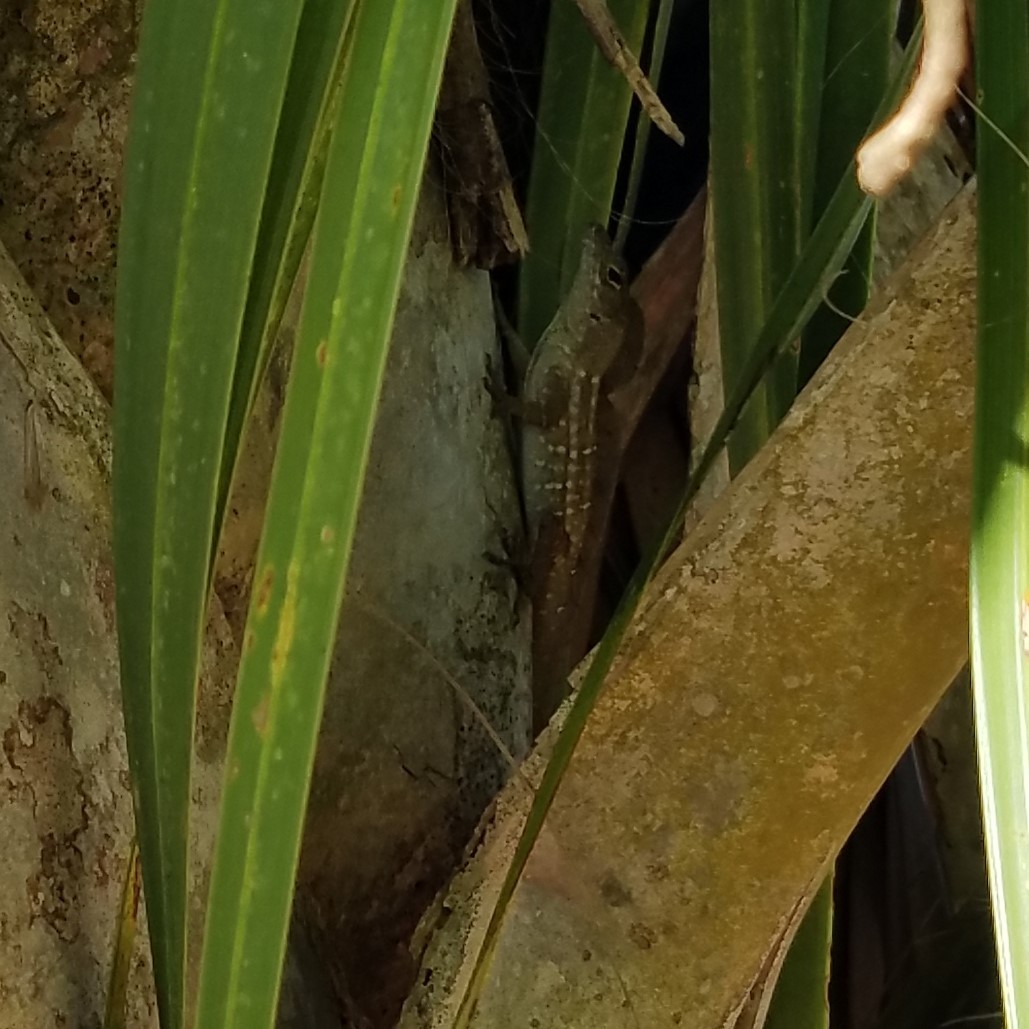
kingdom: Animalia
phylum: Chordata
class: Squamata
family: Dactyloidae
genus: Anolis
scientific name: Anolis sagrei
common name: Brown anole
